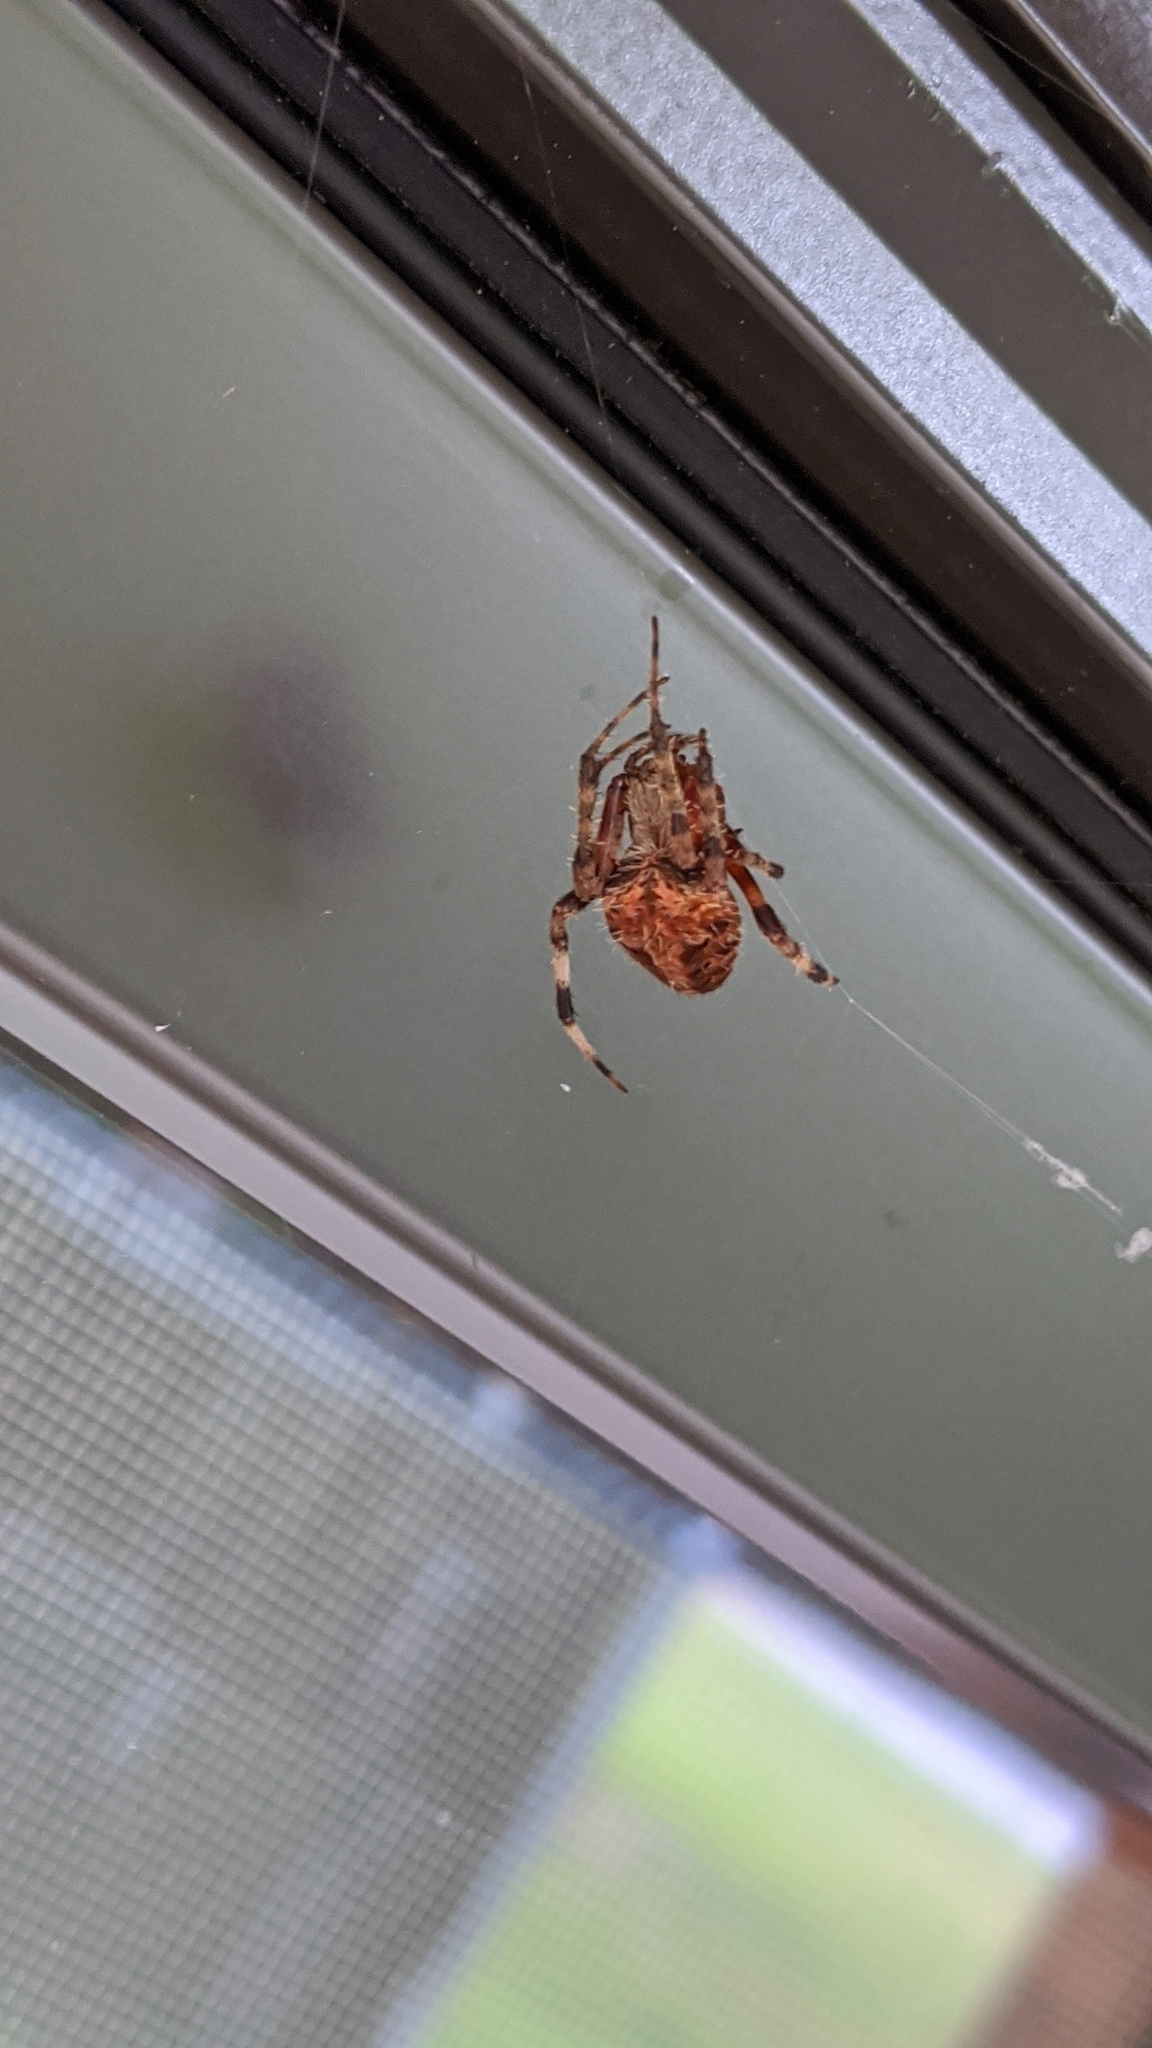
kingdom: Animalia
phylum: Arthropoda
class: Arachnida
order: Araneae
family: Araneidae
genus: Neoscona
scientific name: Neoscona crucifera
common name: Spotted orbweaver
